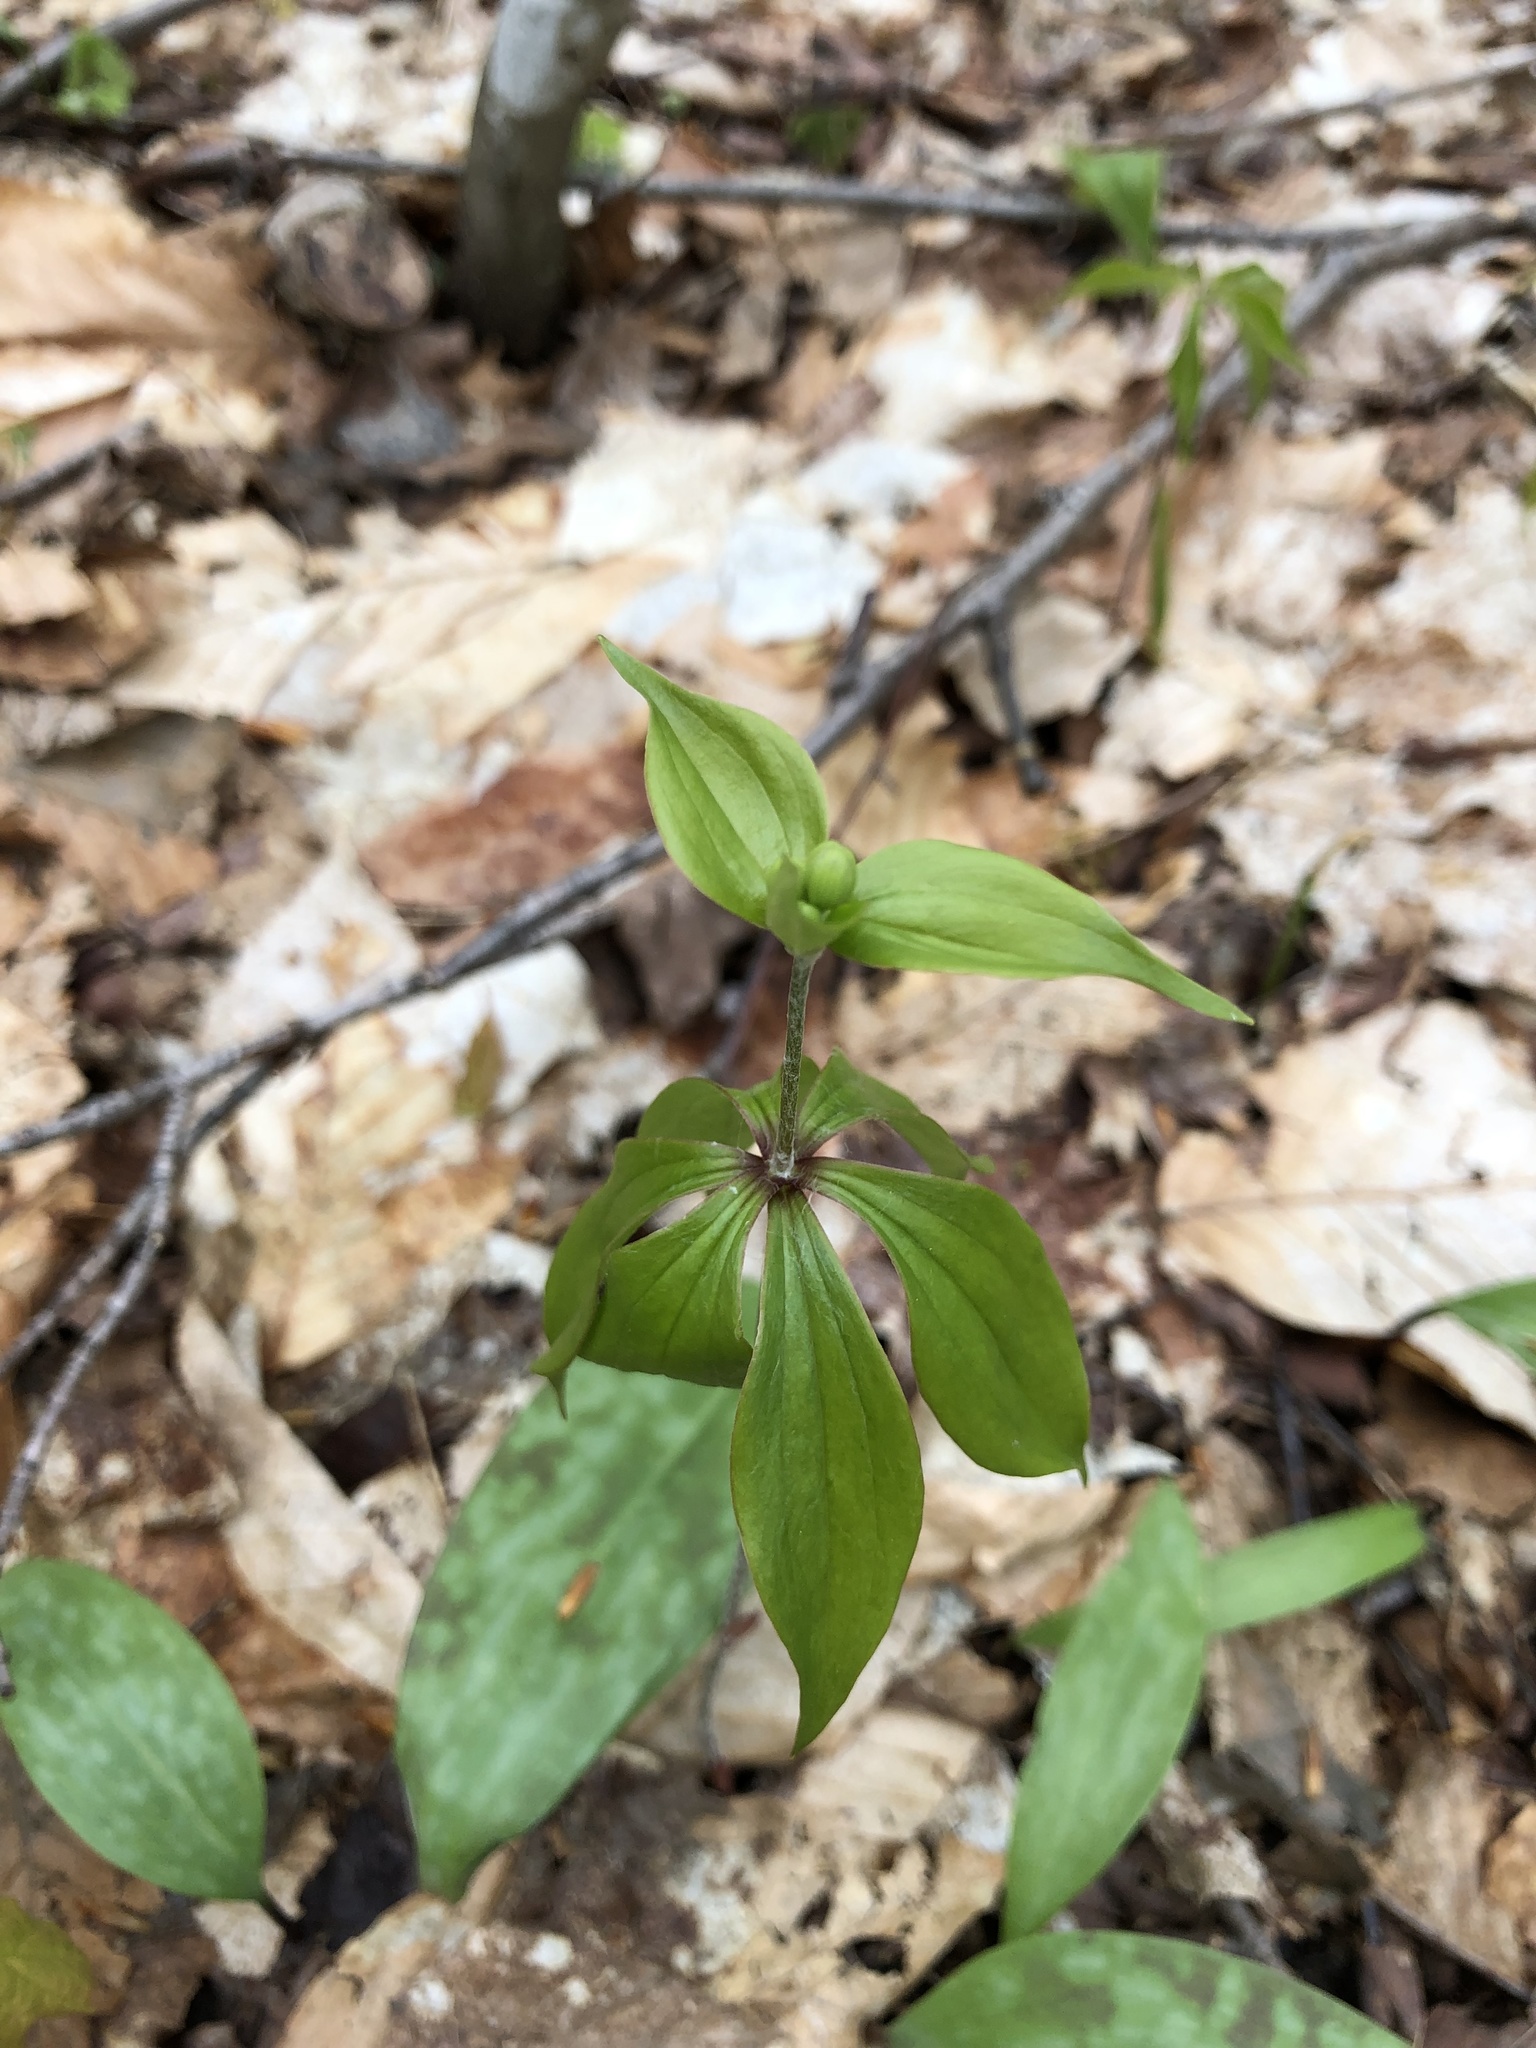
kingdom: Plantae
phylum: Tracheophyta
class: Liliopsida
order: Liliales
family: Liliaceae
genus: Medeola
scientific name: Medeola virginiana
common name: Indian cucumber-root
